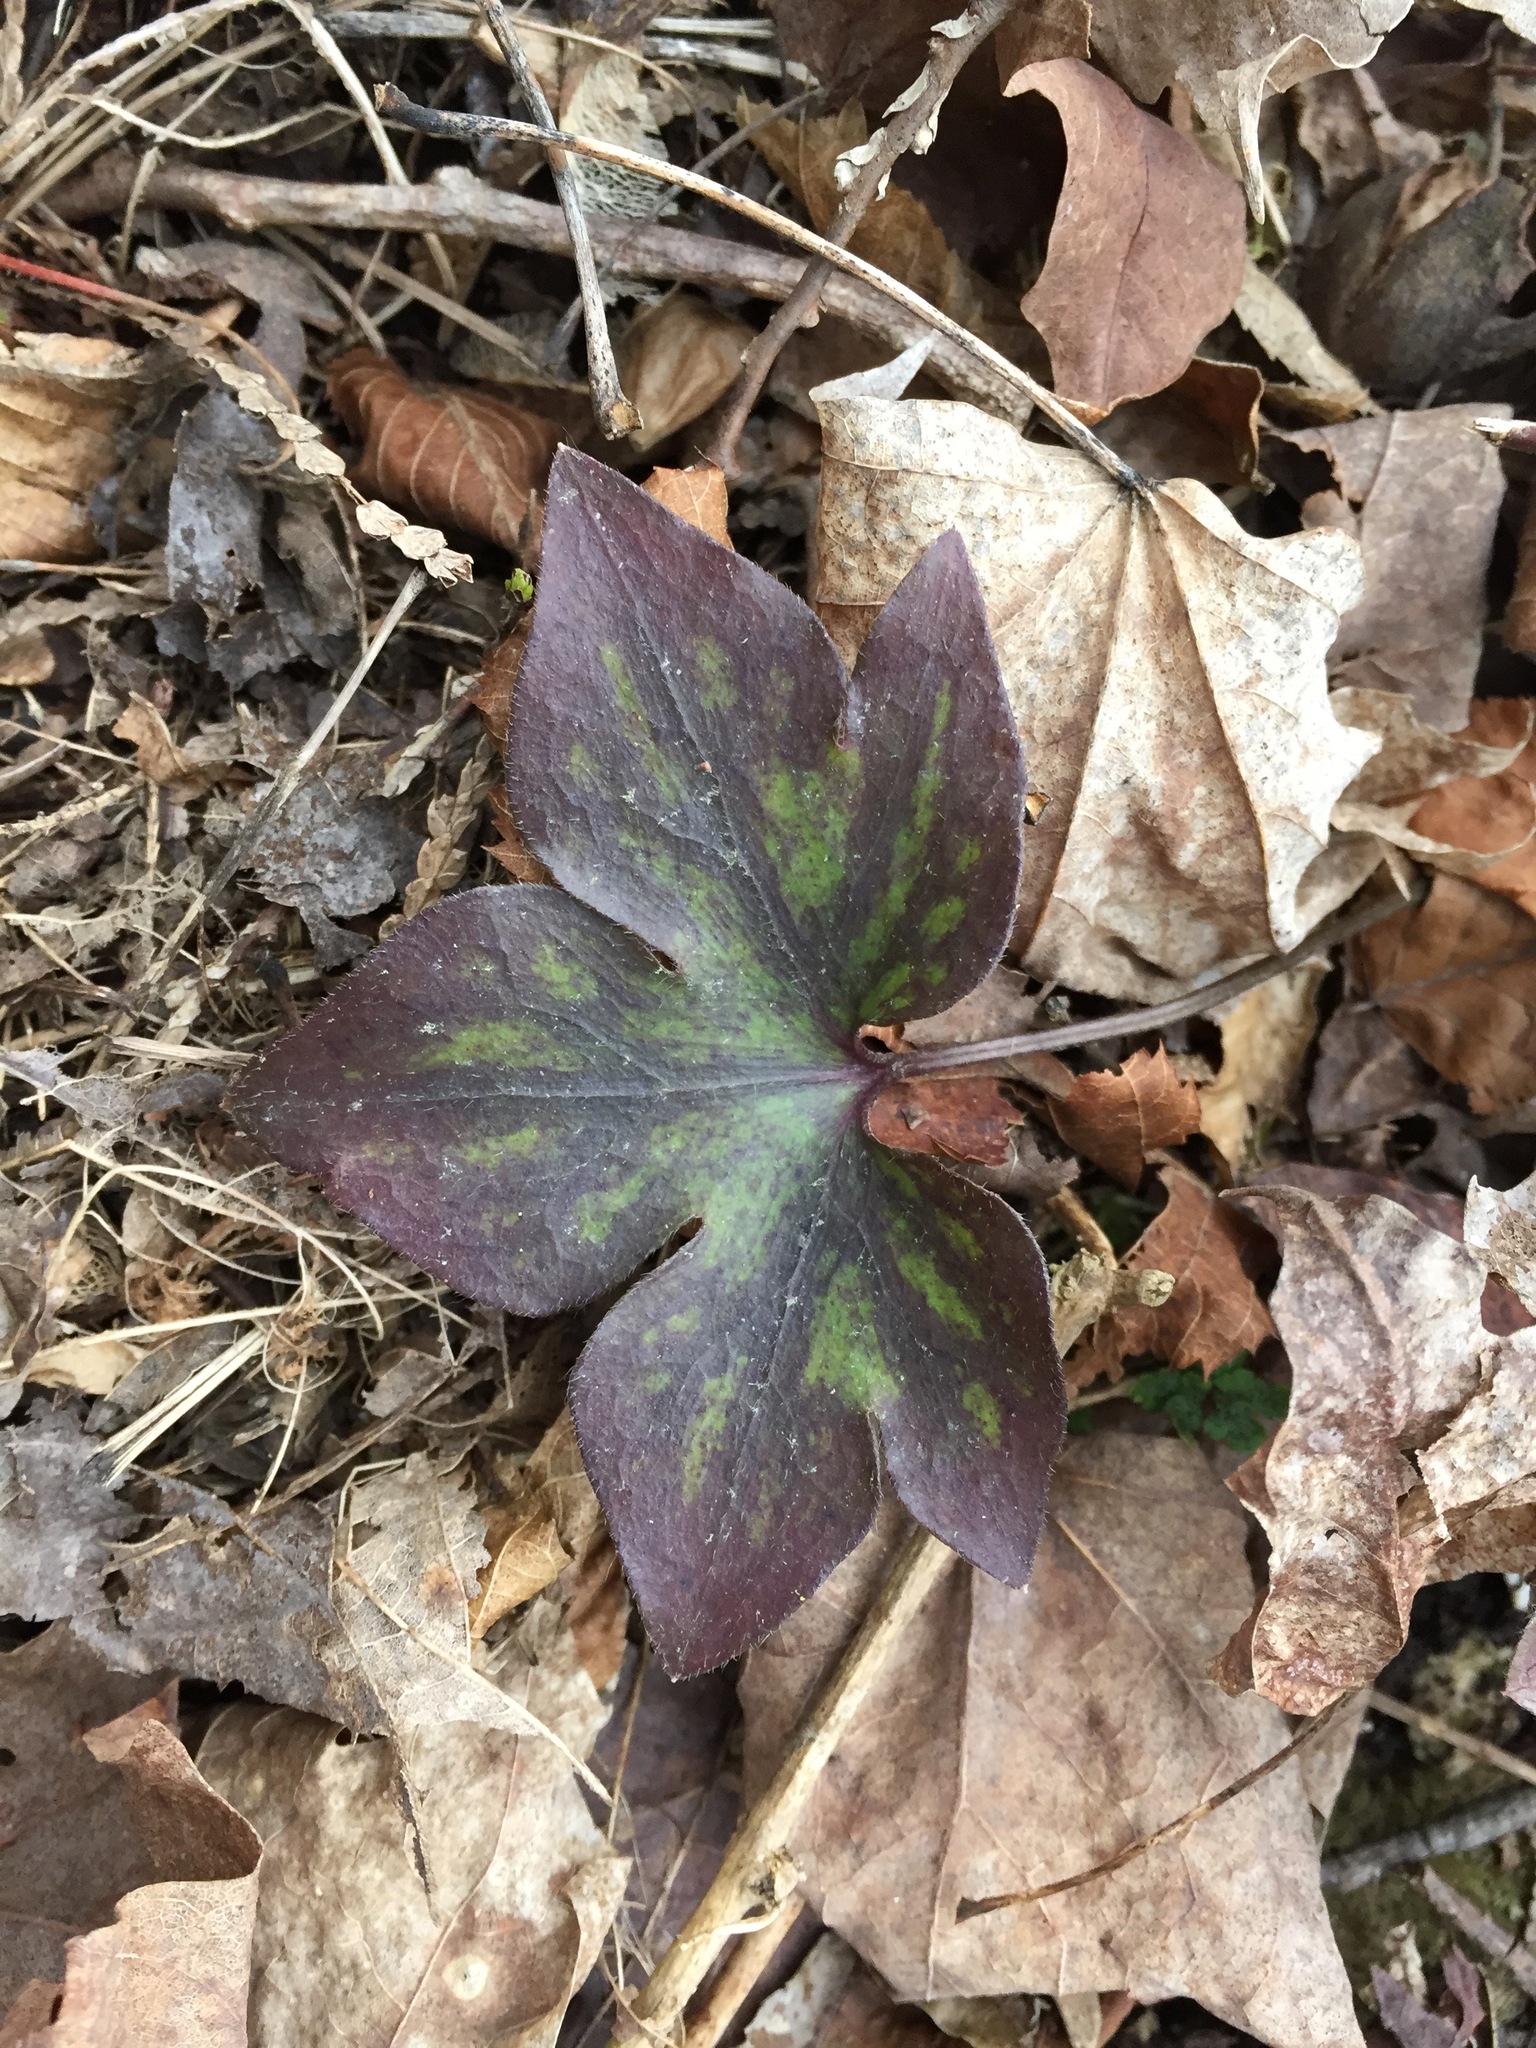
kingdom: Plantae
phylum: Tracheophyta
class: Magnoliopsida
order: Ranunculales
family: Ranunculaceae
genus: Hepatica
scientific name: Hepatica acutiloba
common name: Sharp-lobed hepatica
